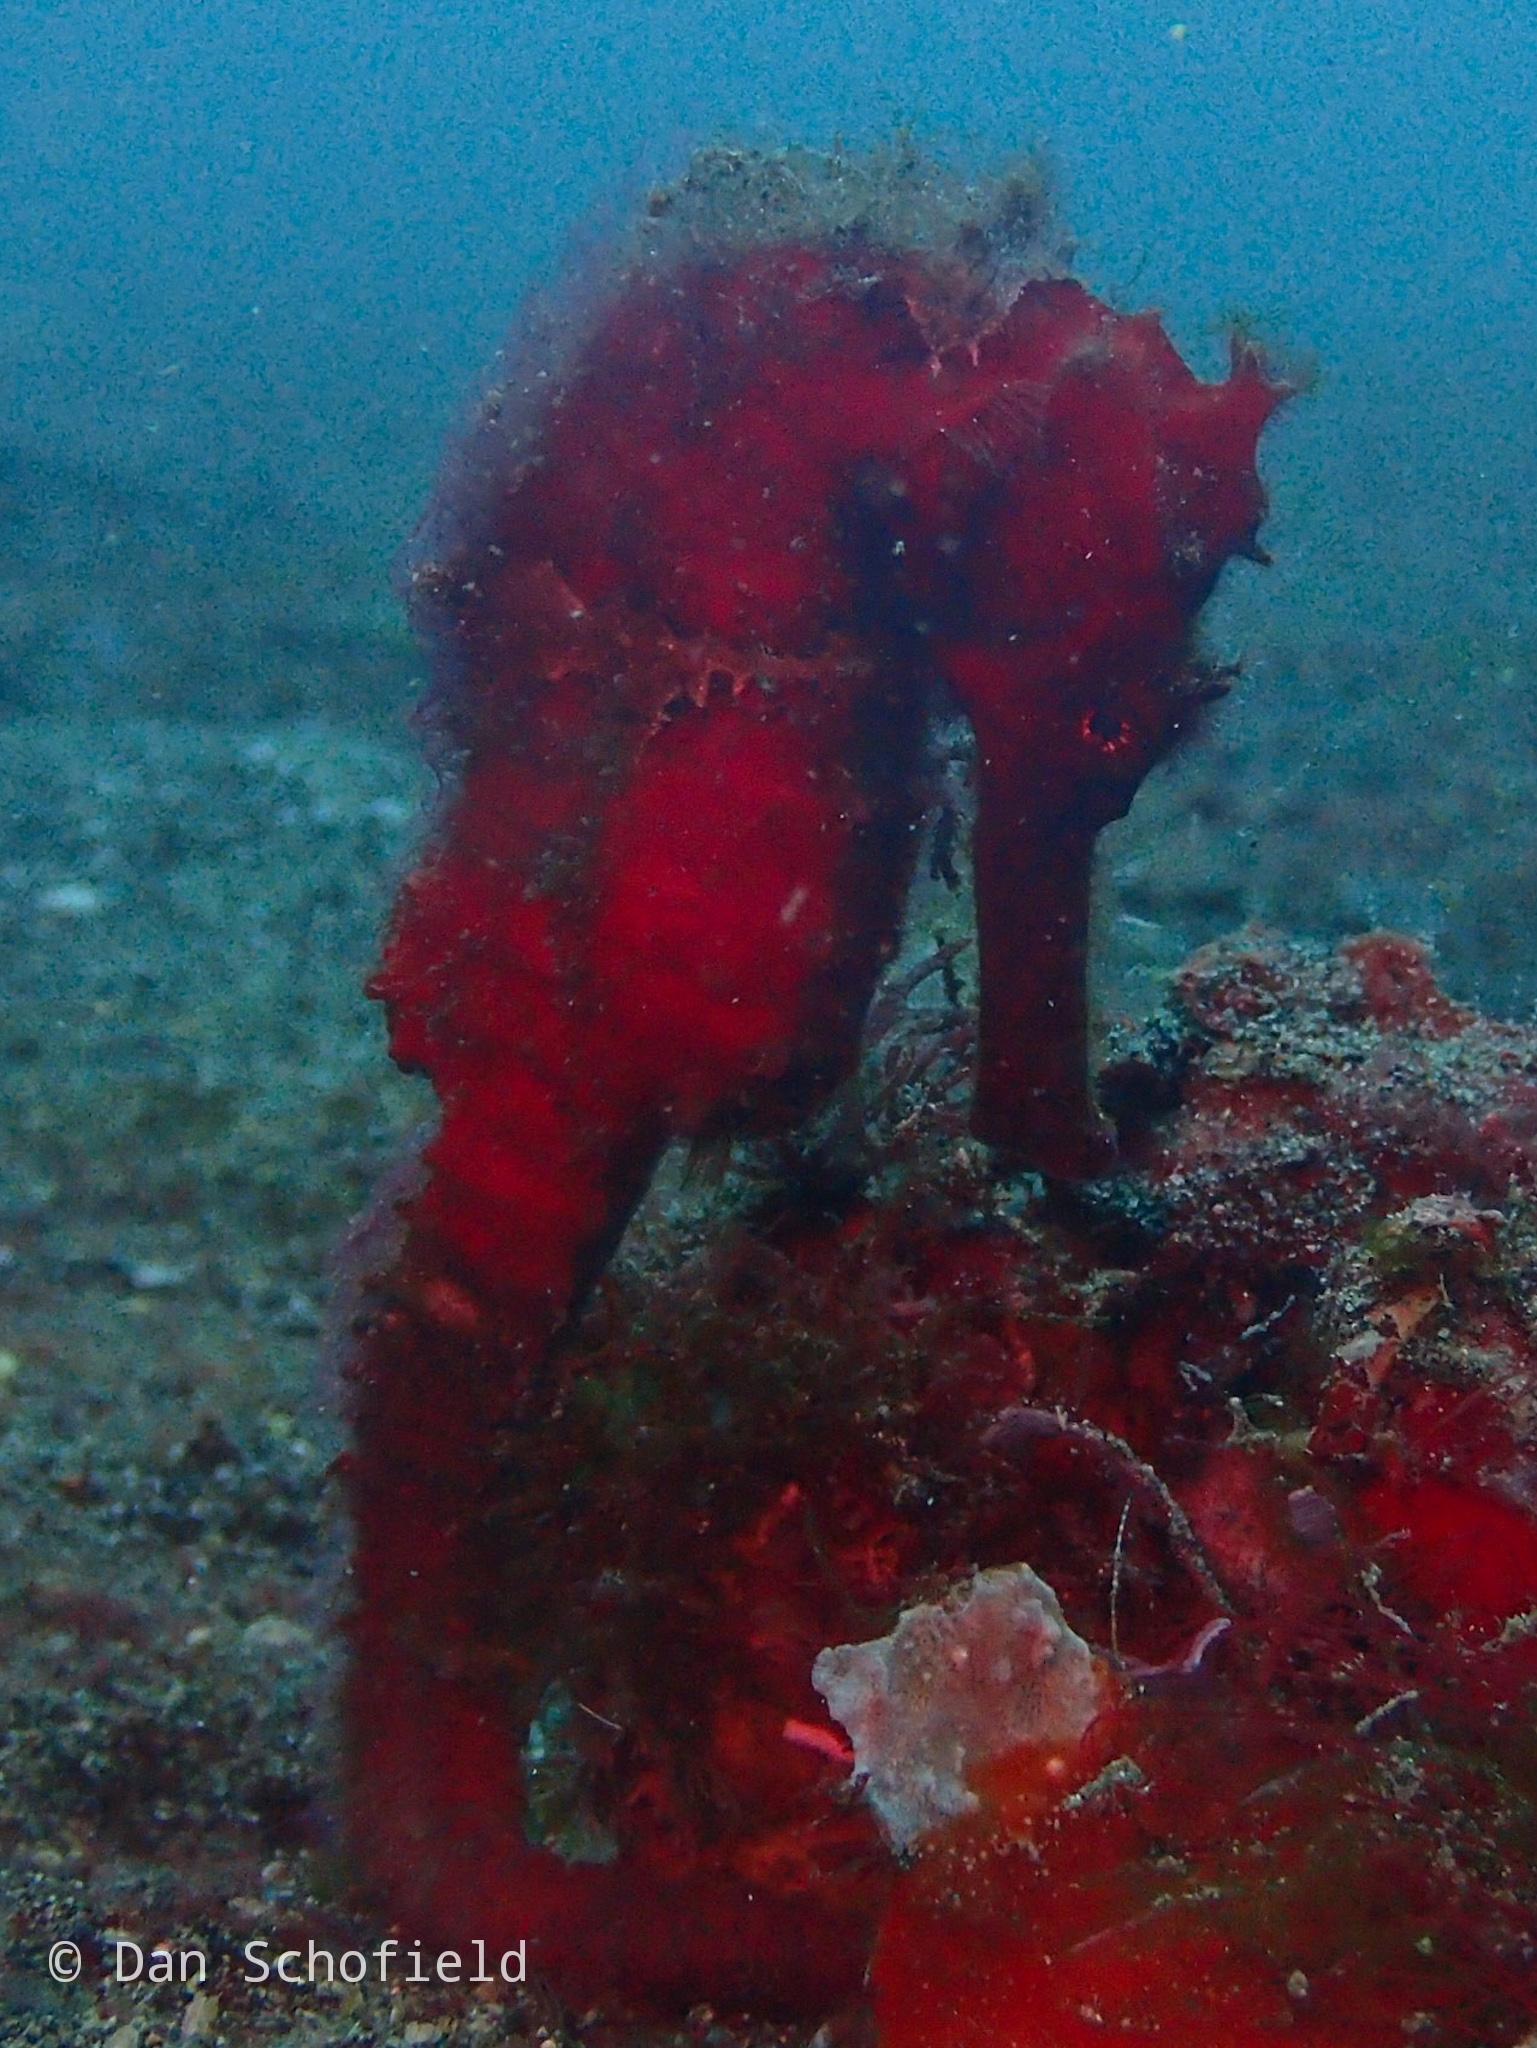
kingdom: Animalia
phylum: Chordata
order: Syngnathiformes
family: Syngnathidae
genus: Hippocampus
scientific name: Hippocampus kuda
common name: Spotted seahorse
